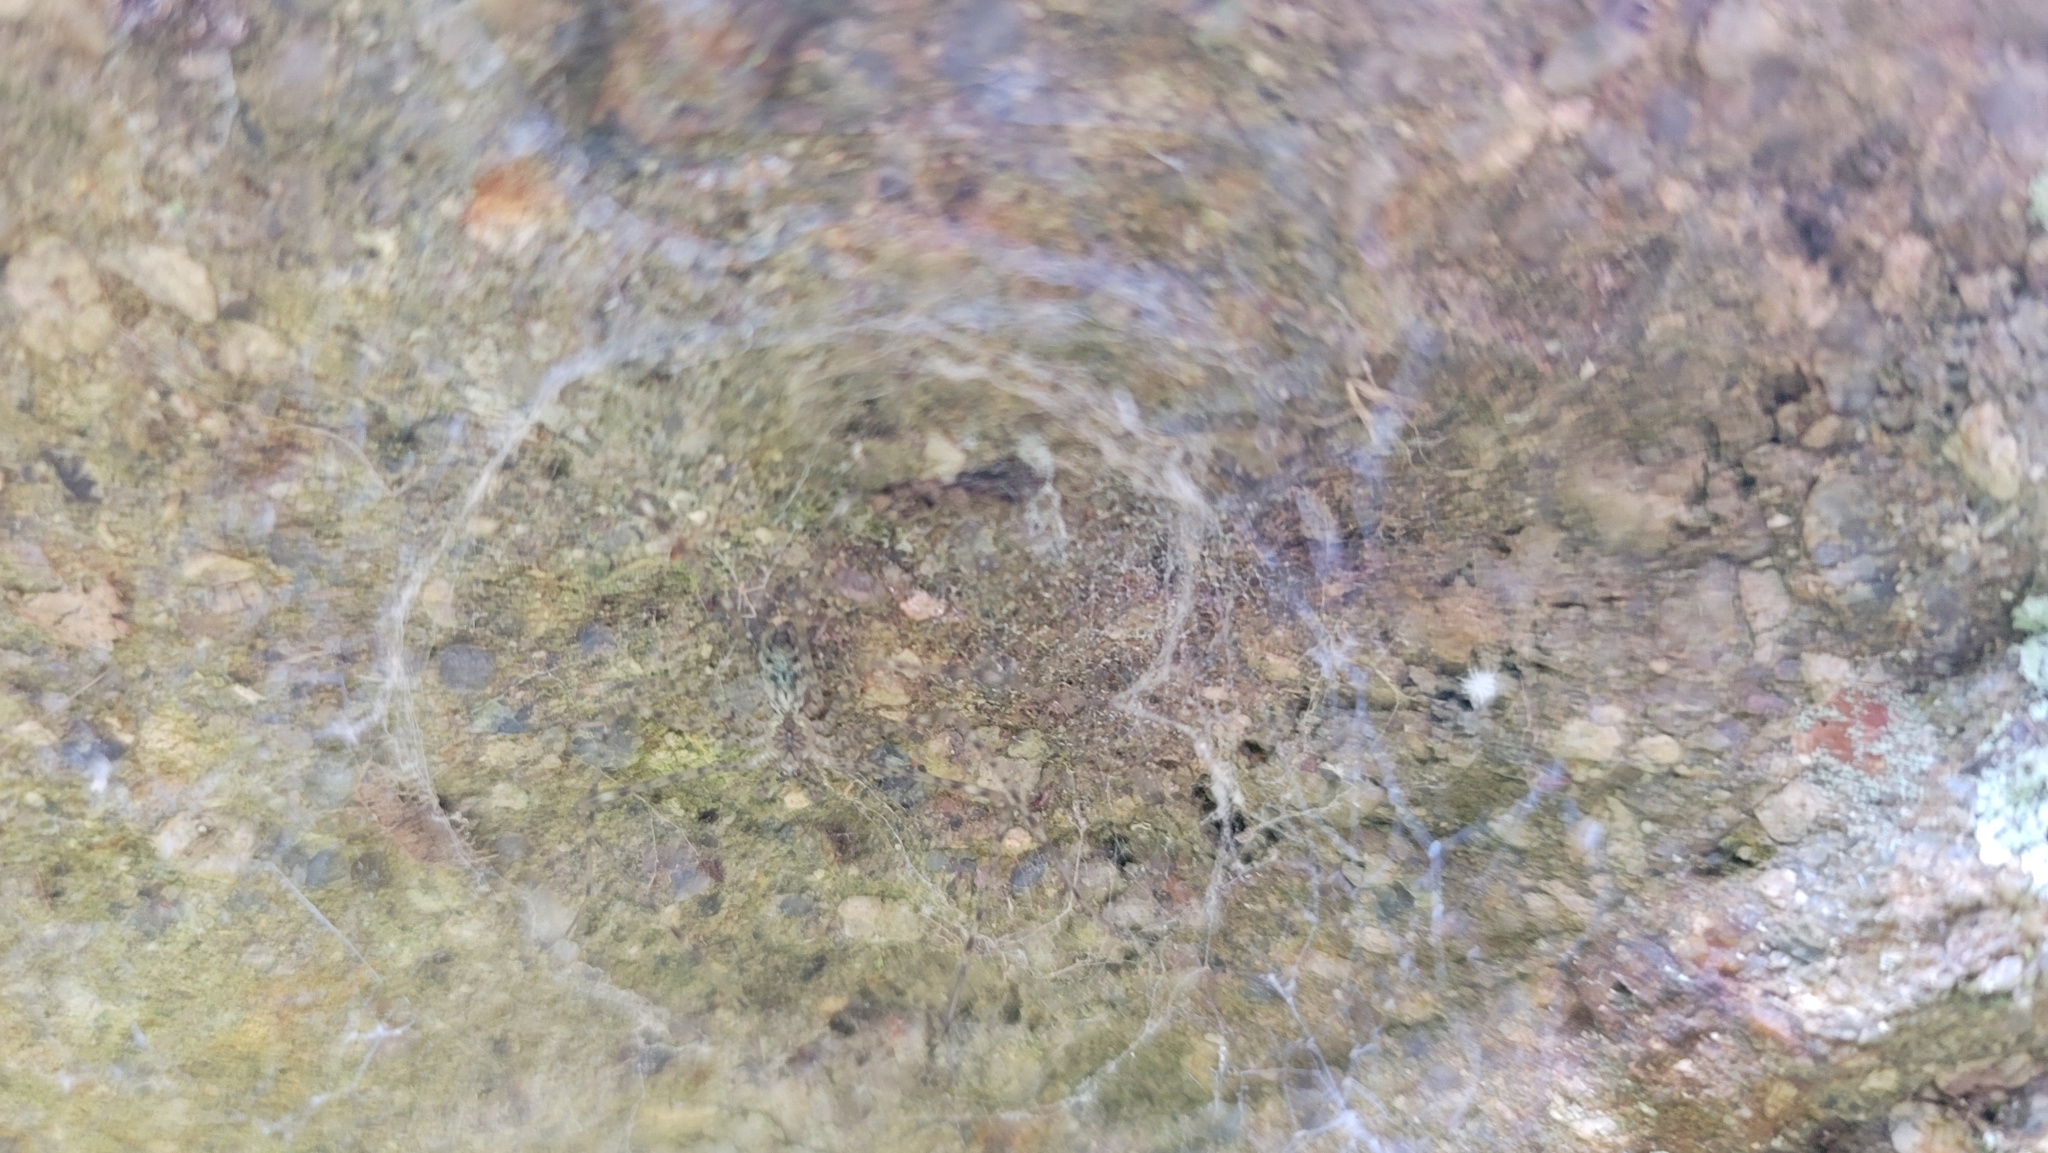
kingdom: Animalia
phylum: Arthropoda
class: Arachnida
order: Araneae
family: Hypochilidae
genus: Hypochilus
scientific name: Hypochilus pococki
